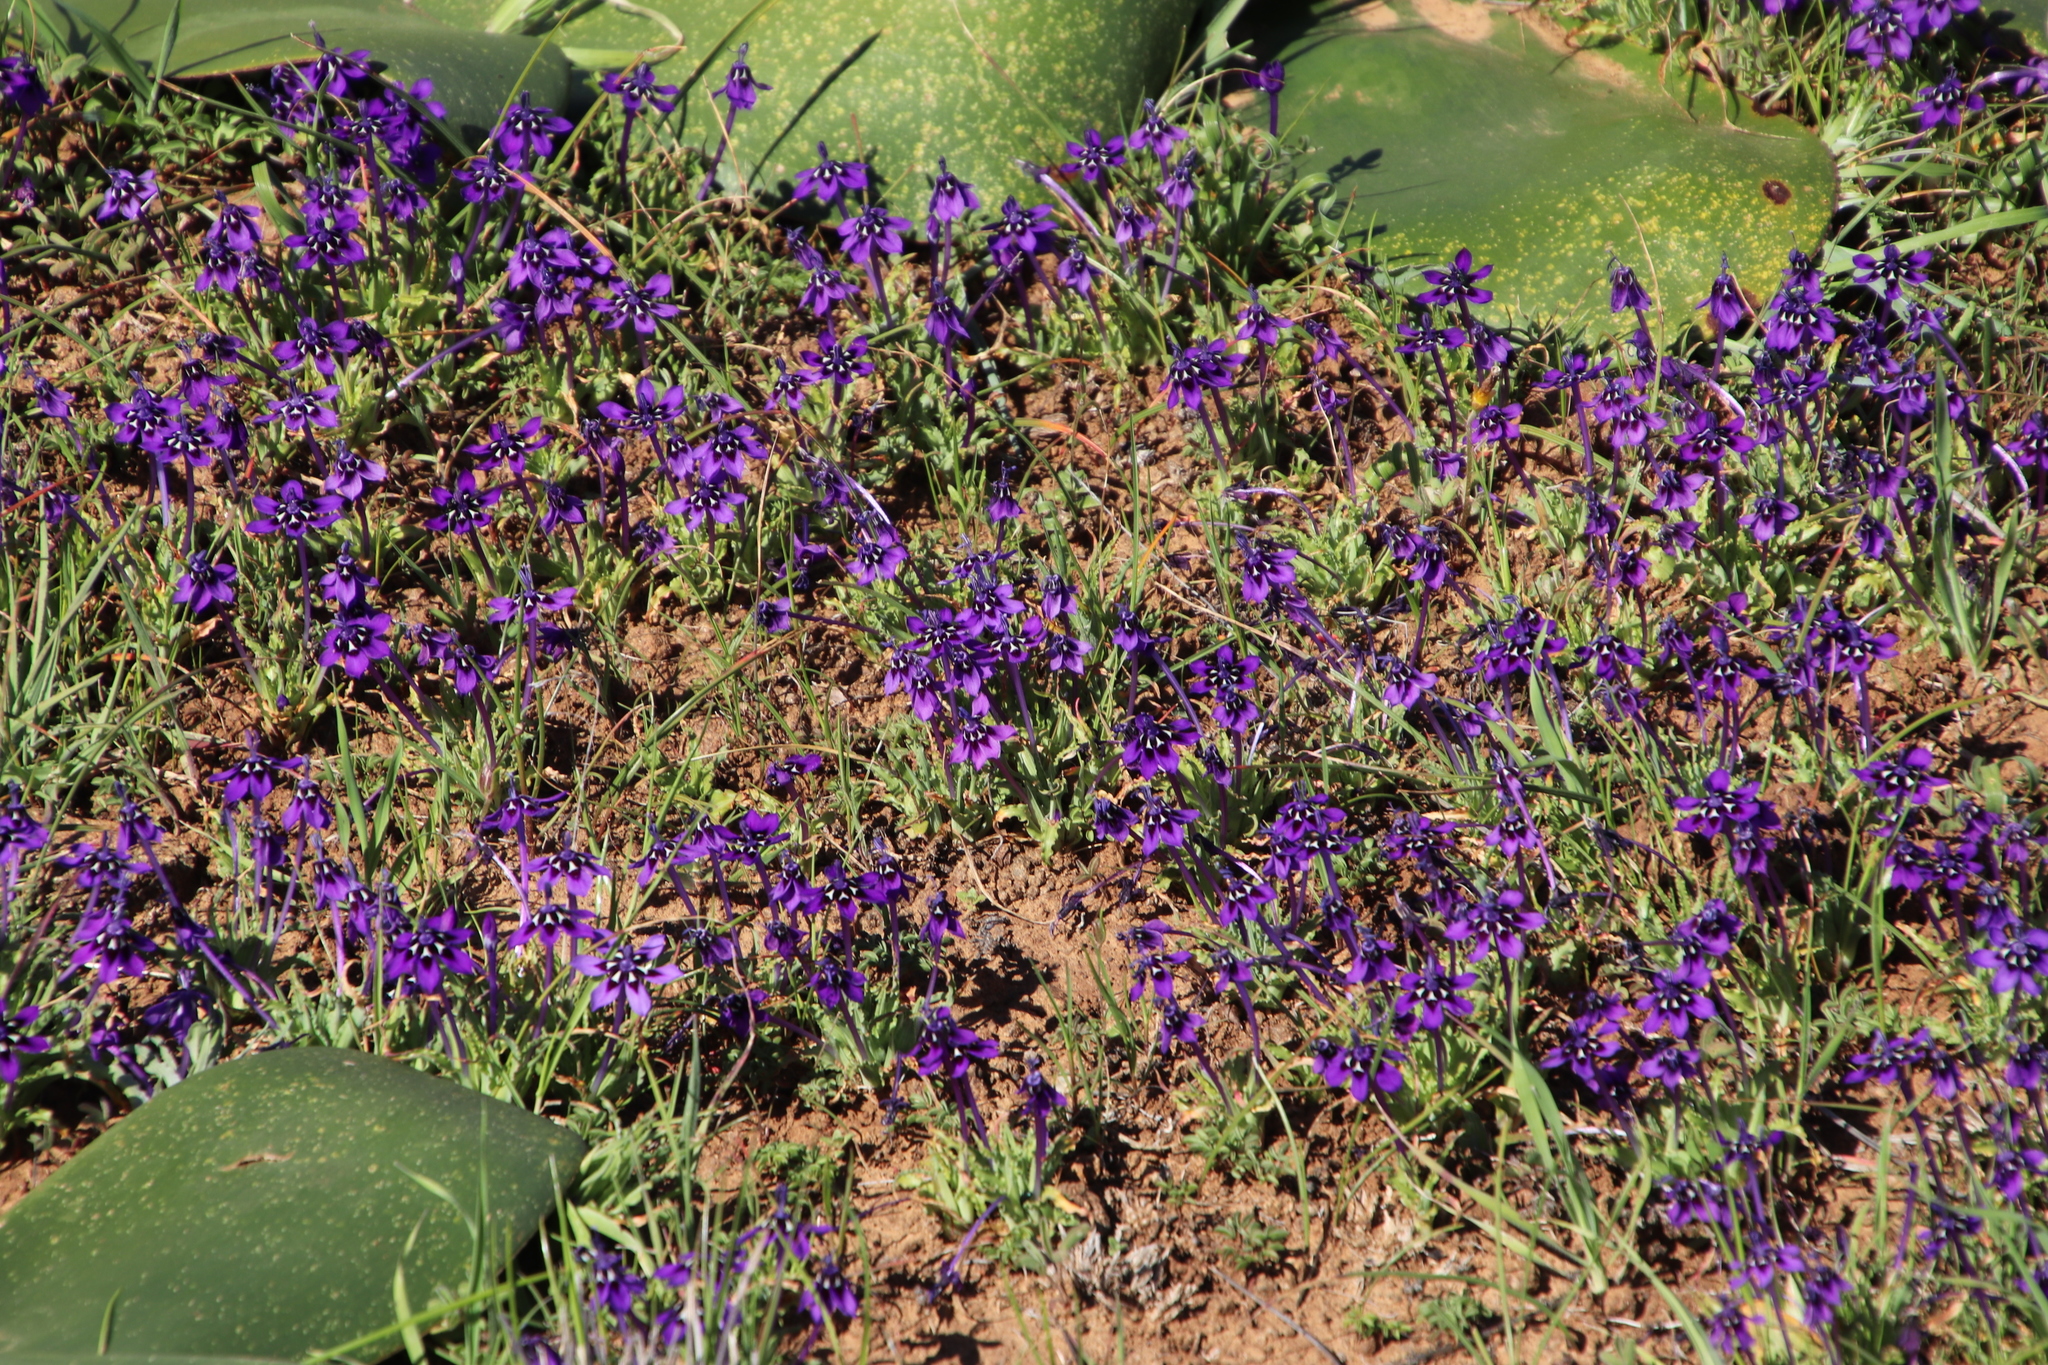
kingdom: Plantae
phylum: Tracheophyta
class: Liliopsida
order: Asparagales
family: Iridaceae
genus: Lapeirousia
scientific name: Lapeirousia oreogena
